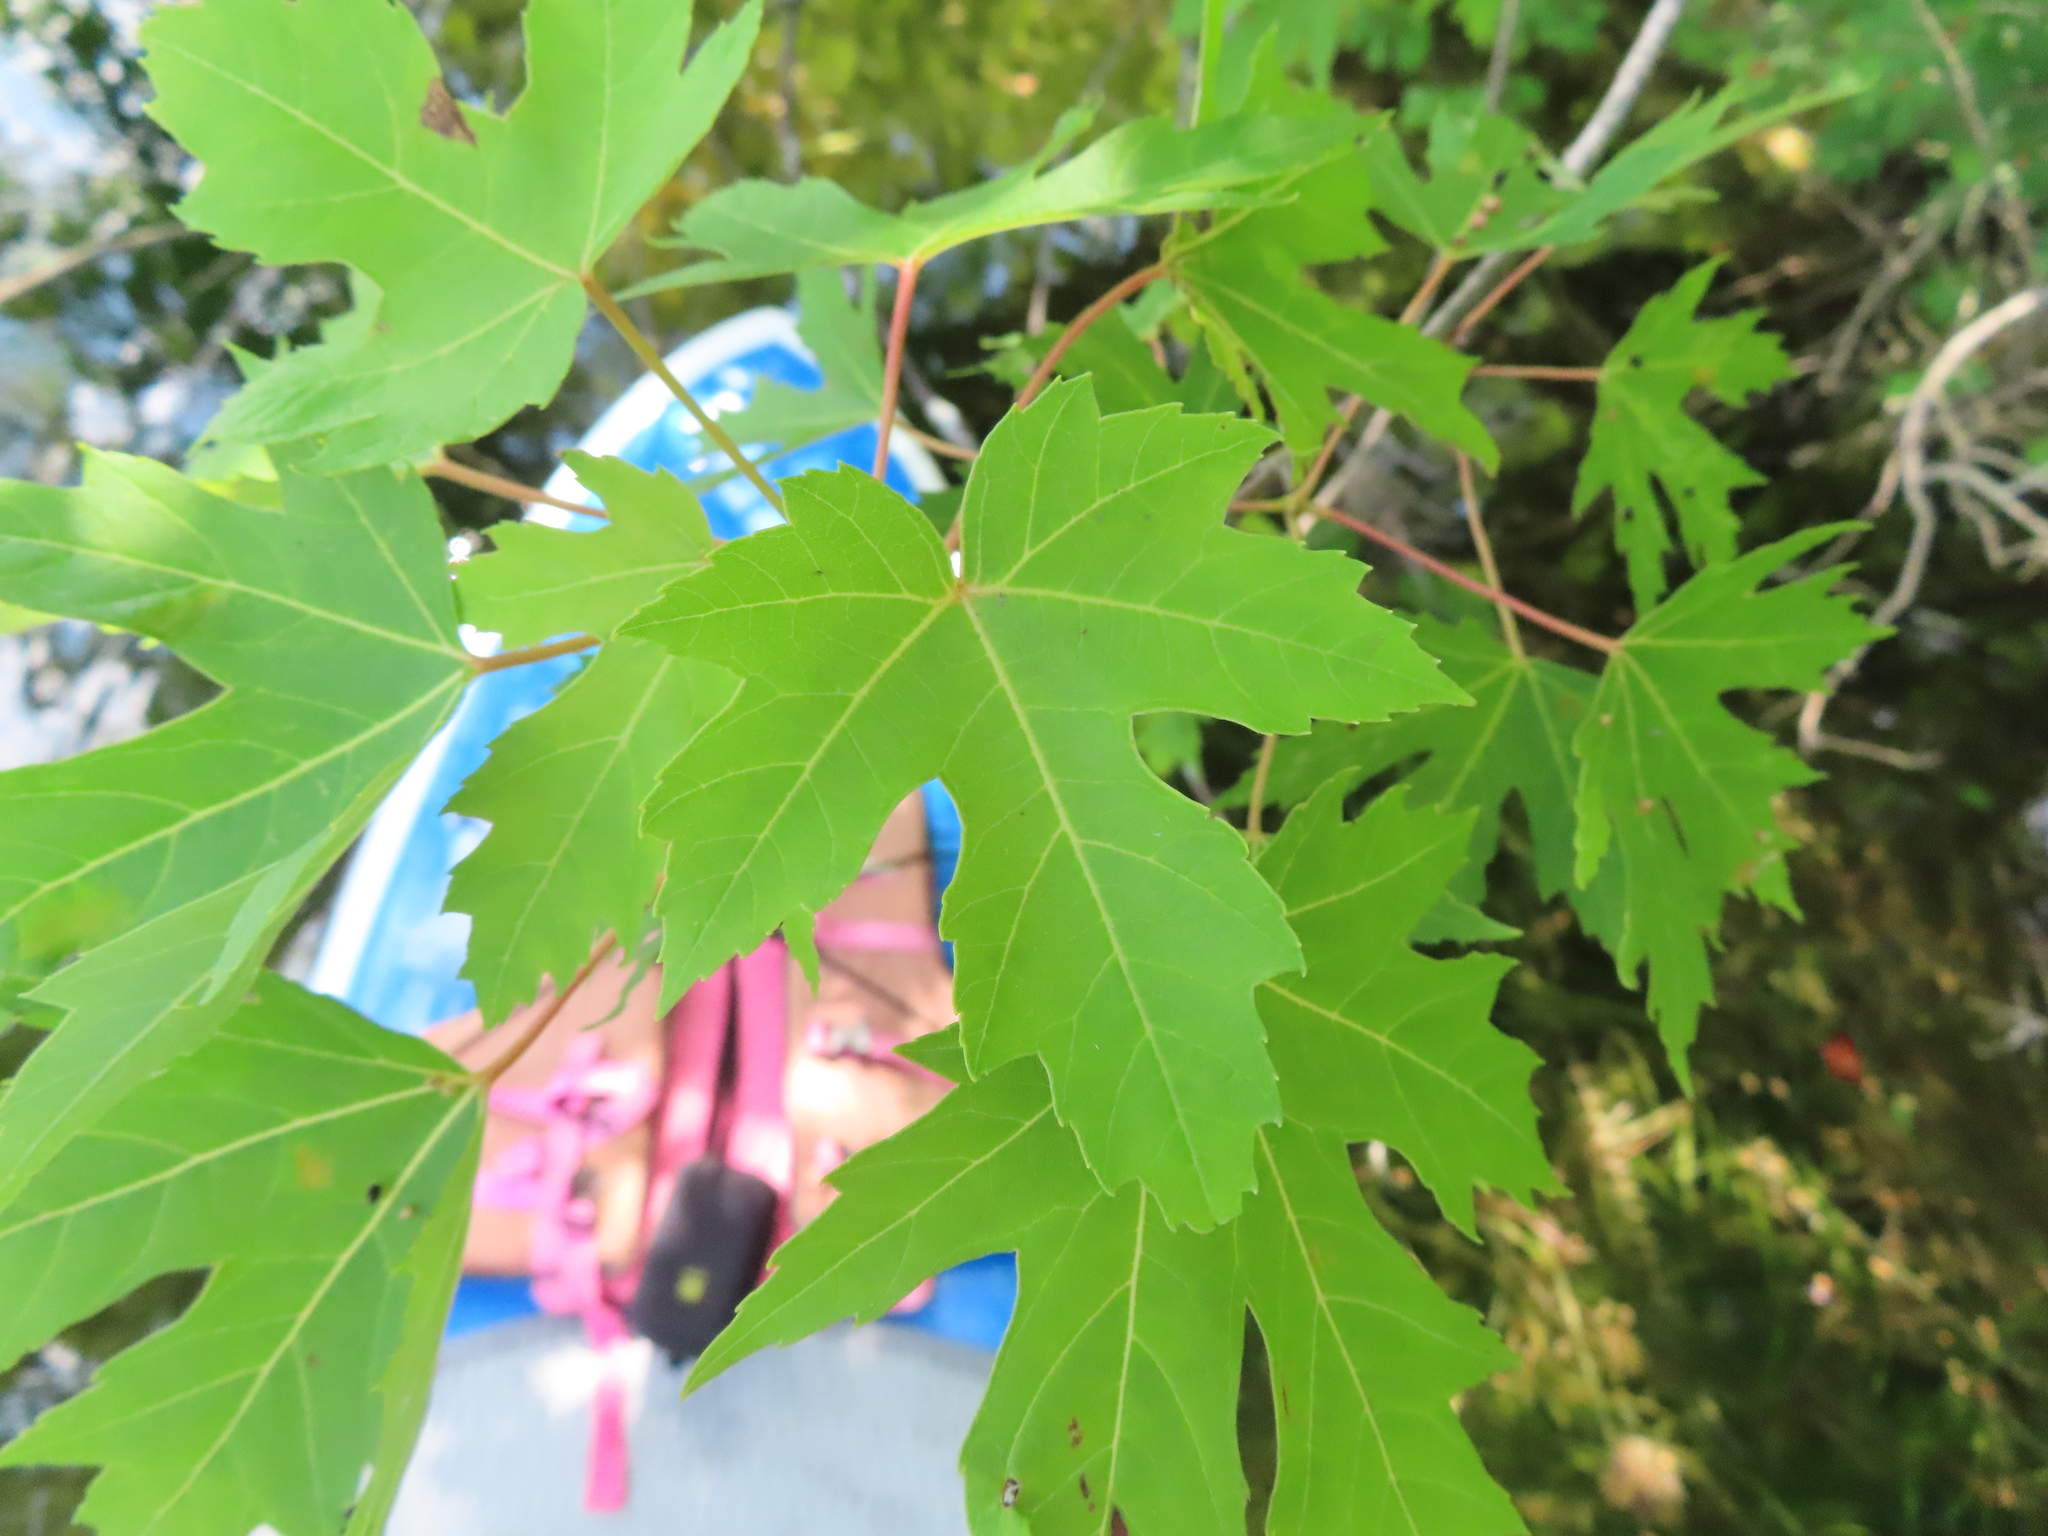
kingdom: Plantae
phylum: Tracheophyta
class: Magnoliopsida
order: Sapindales
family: Sapindaceae
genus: Acer
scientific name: Acer saccharinum
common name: Silver maple
